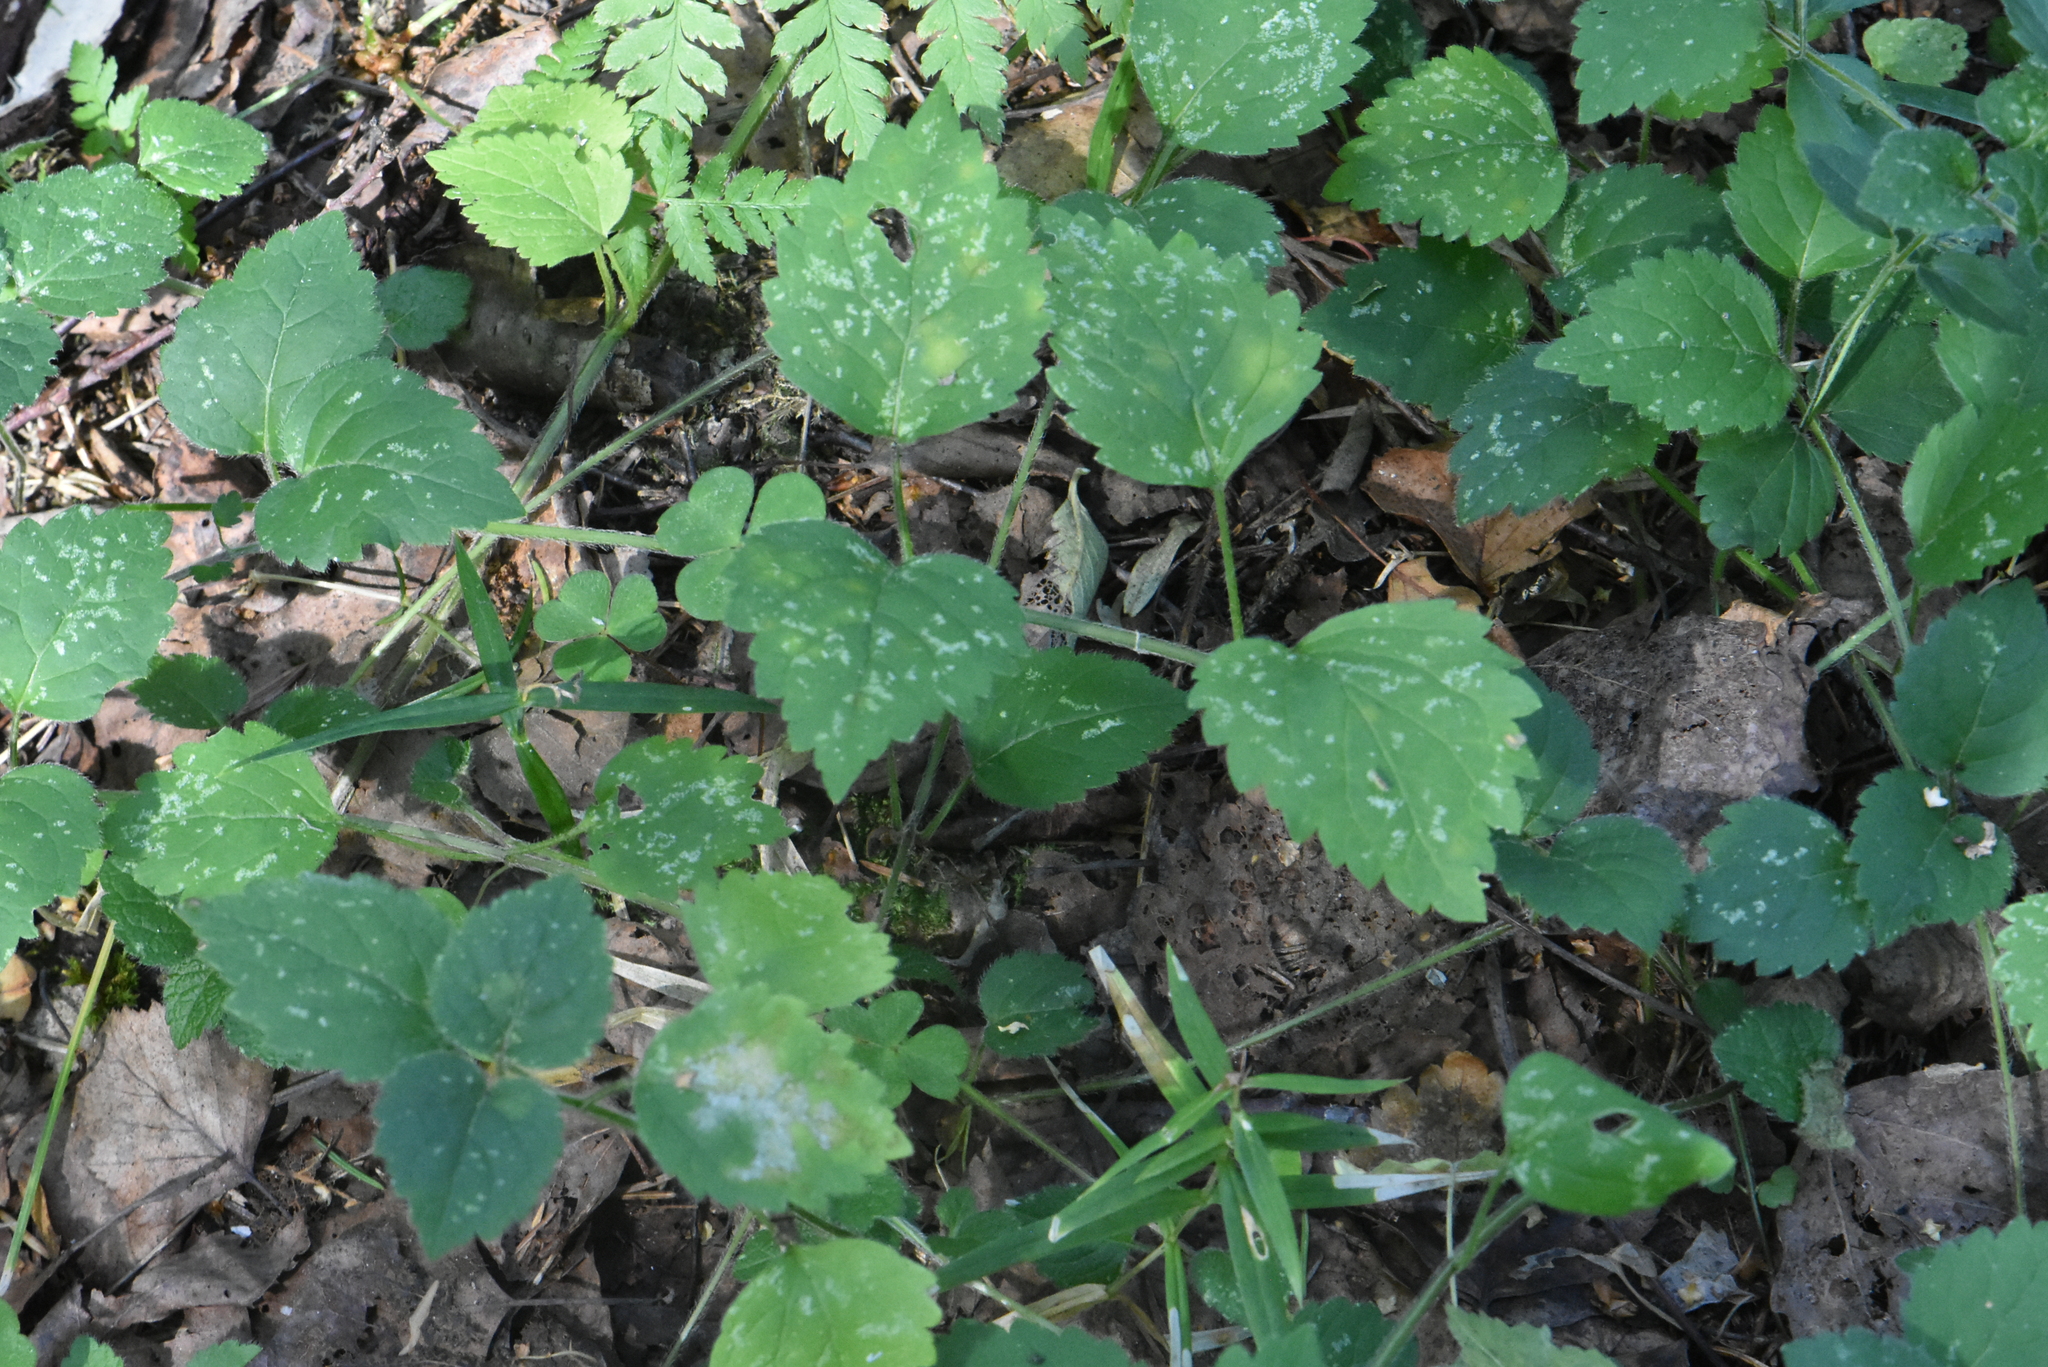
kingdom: Plantae
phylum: Tracheophyta
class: Magnoliopsida
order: Lamiales
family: Lamiaceae
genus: Lamium
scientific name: Lamium galeobdolon
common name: Yellow archangel
